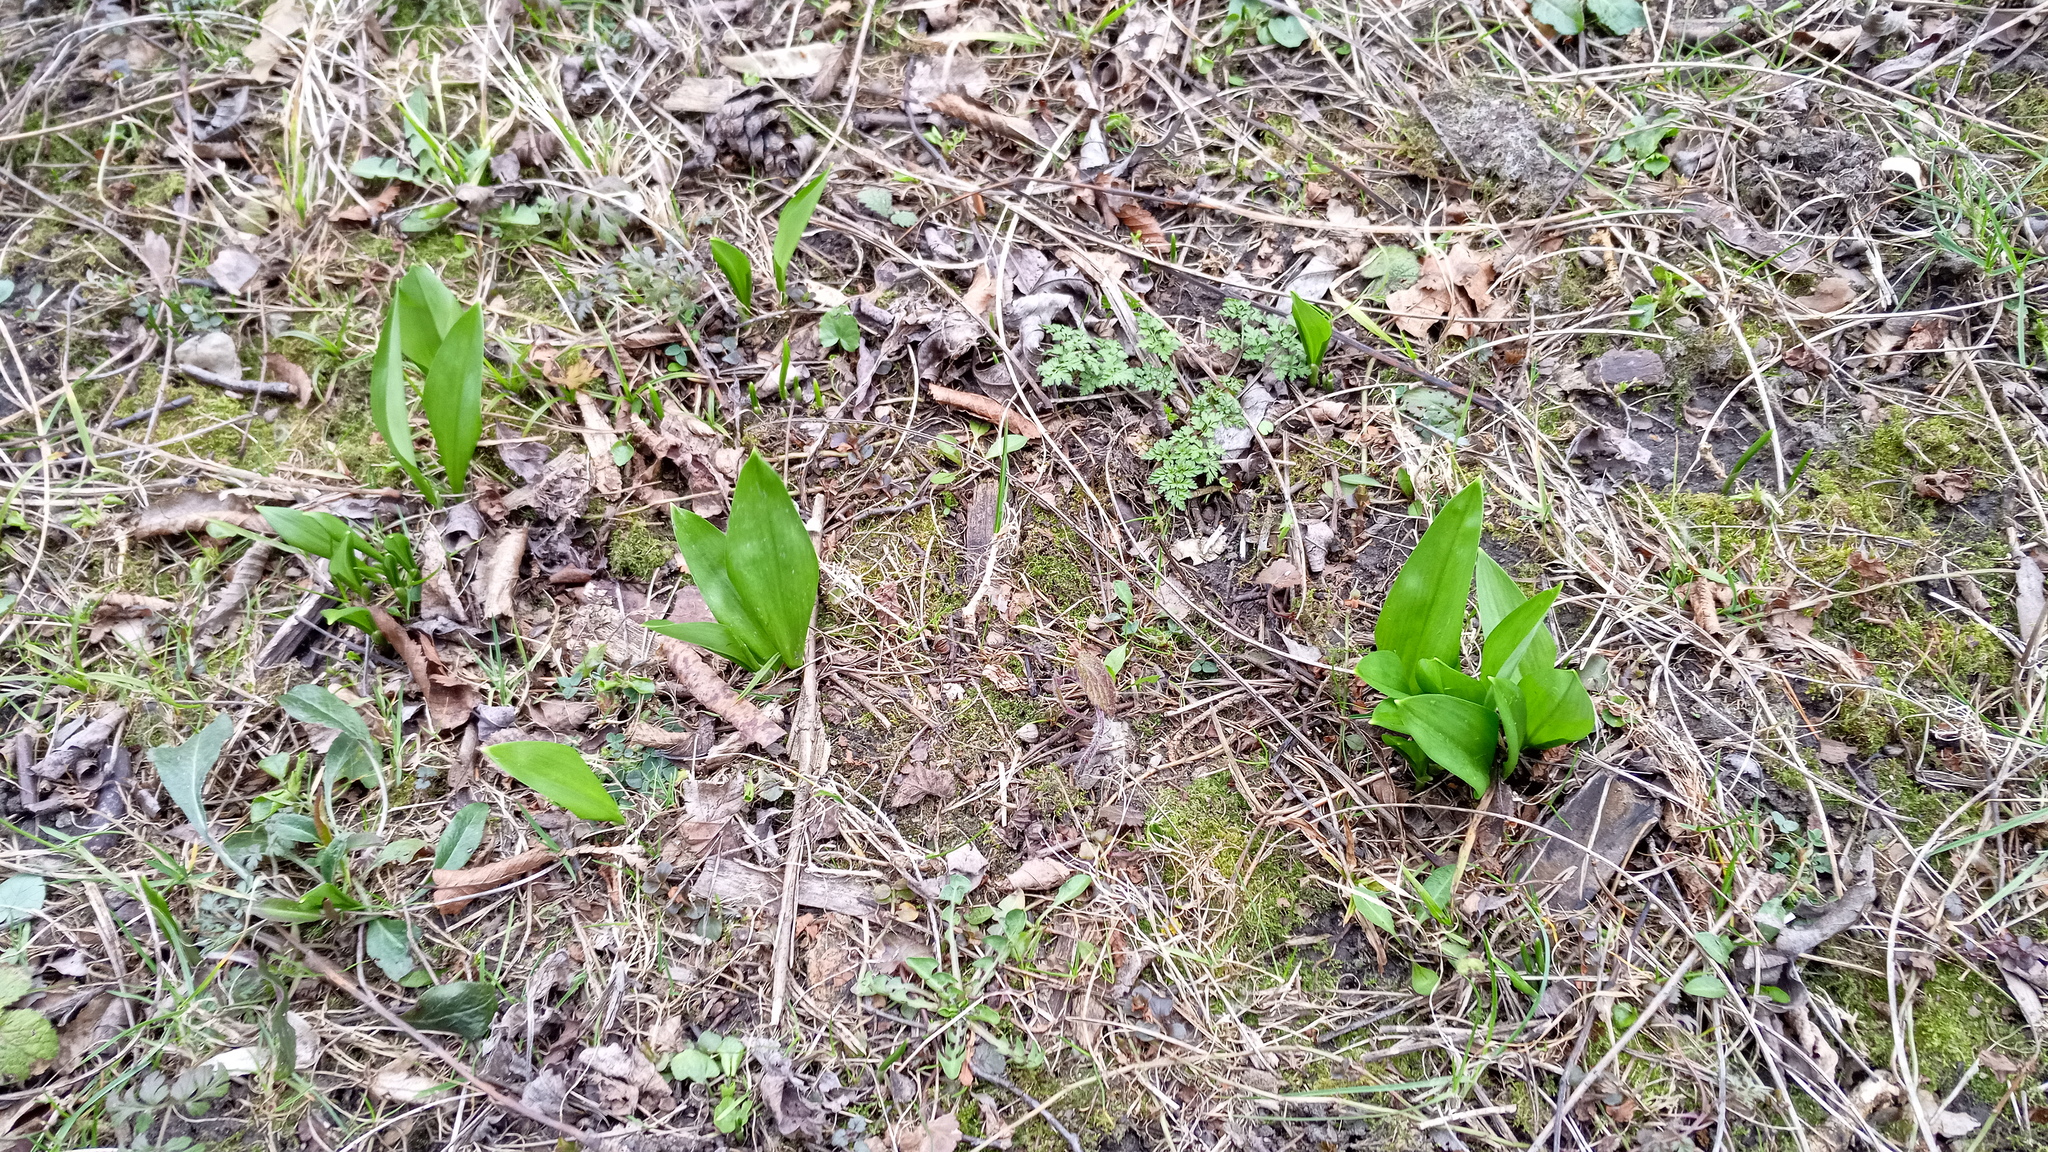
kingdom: Plantae
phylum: Tracheophyta
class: Liliopsida
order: Asparagales
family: Amaryllidaceae
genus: Allium
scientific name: Allium ursinum
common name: Ramsons
